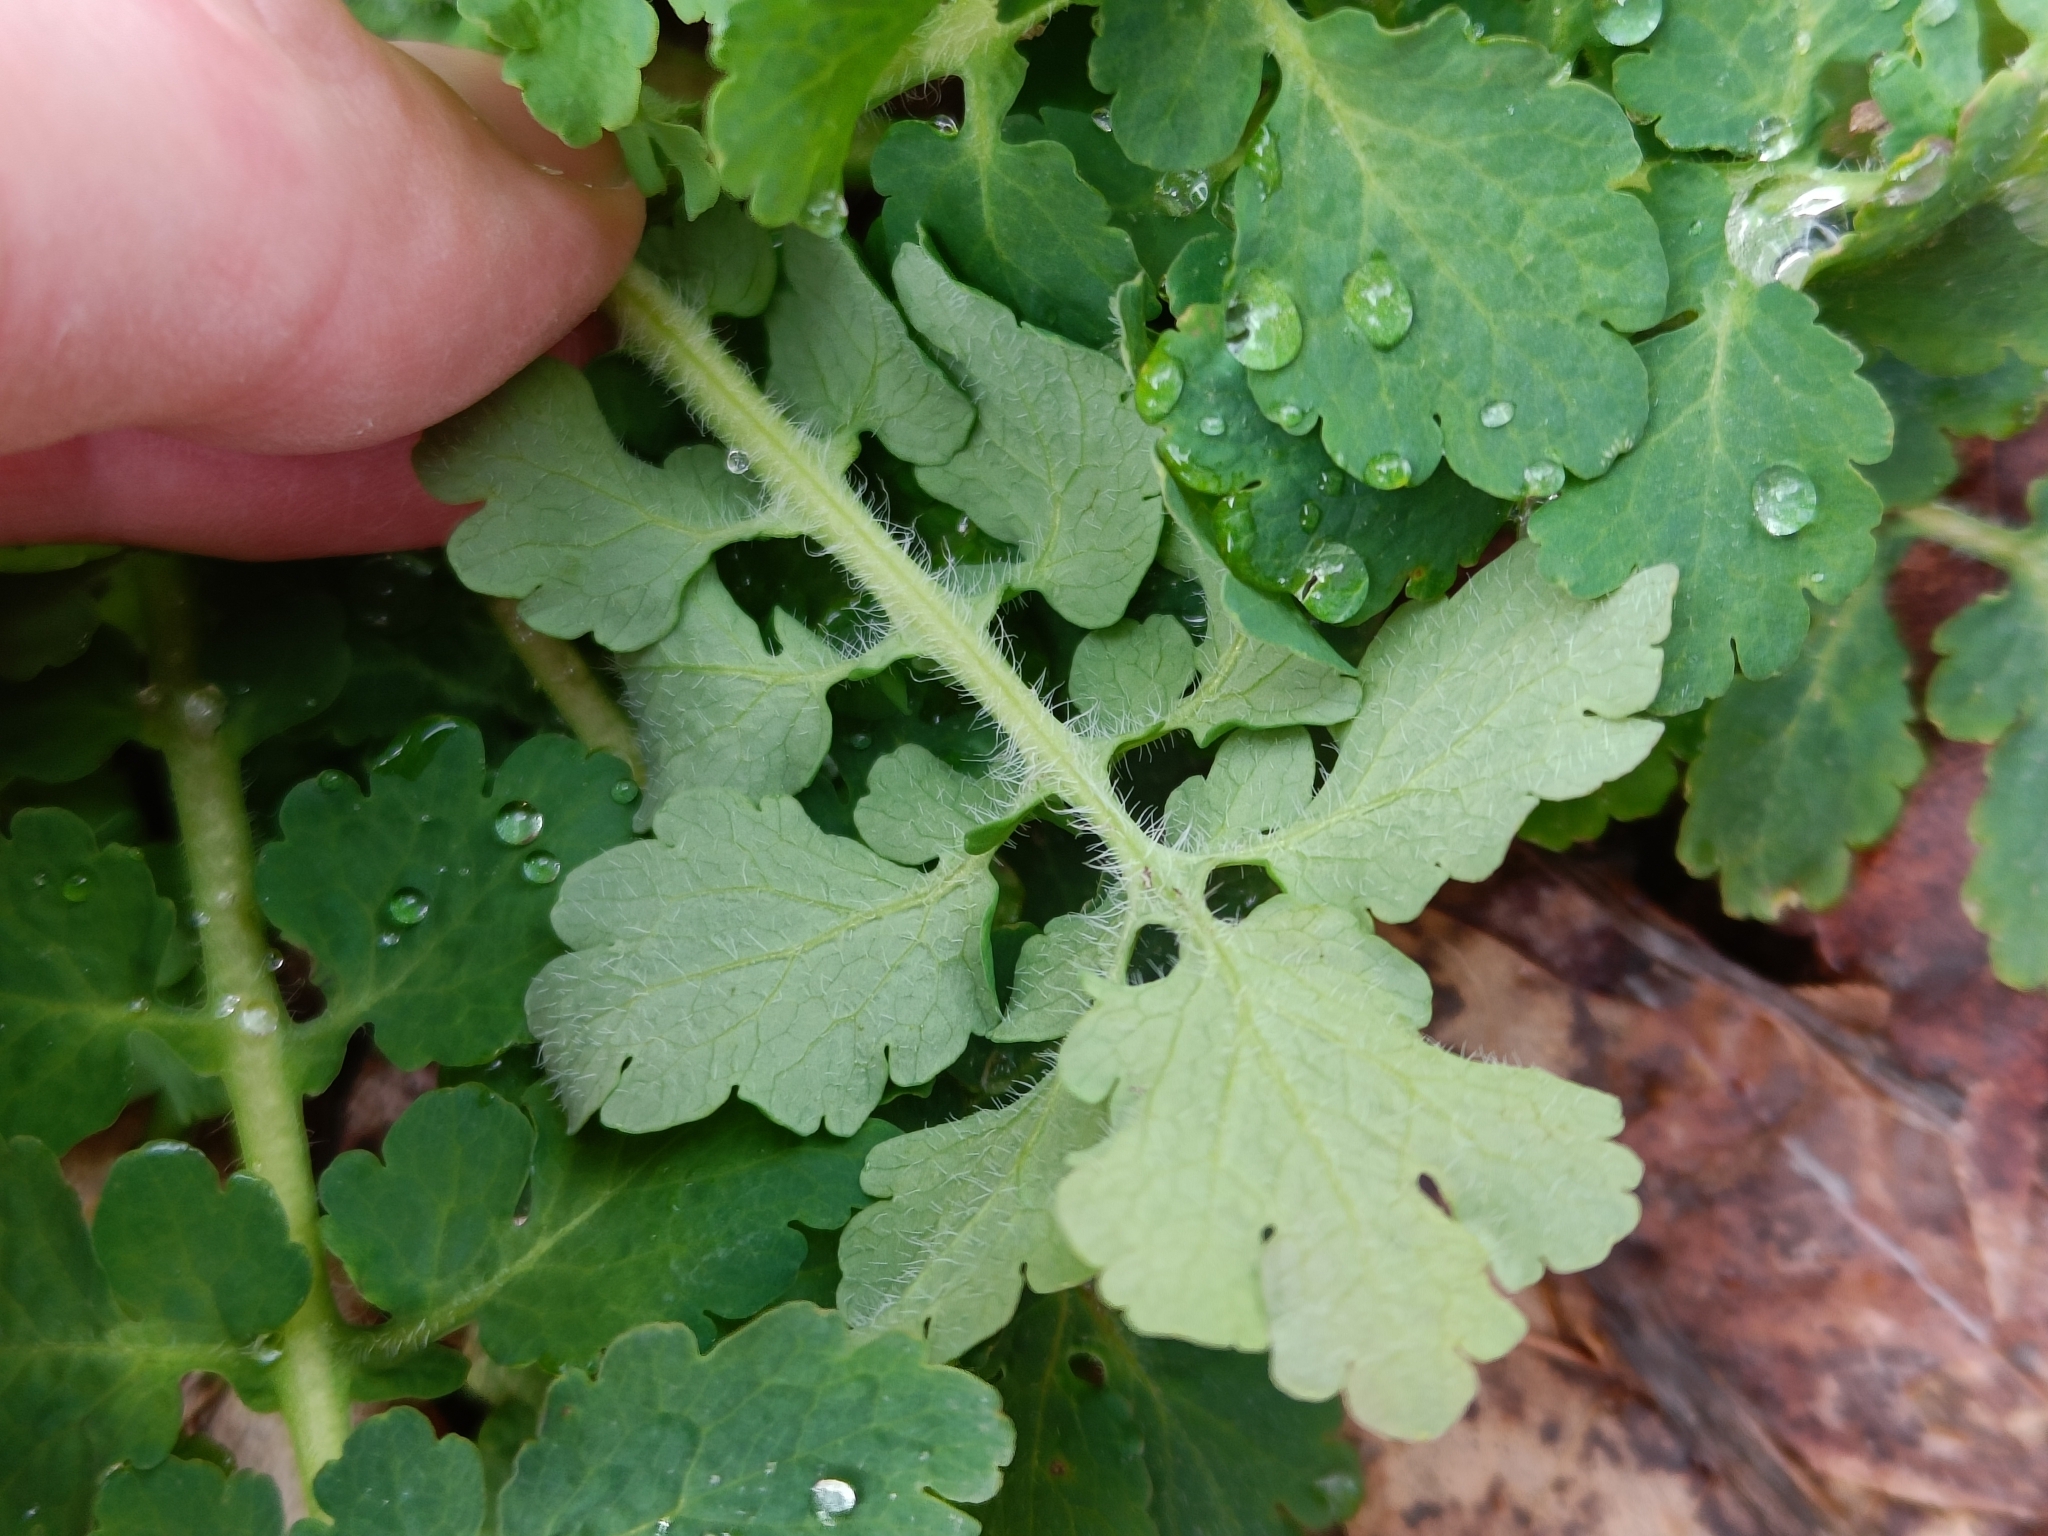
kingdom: Plantae
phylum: Tracheophyta
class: Magnoliopsida
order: Ranunculales
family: Papaveraceae
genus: Chelidonium
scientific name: Chelidonium majus
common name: Greater celandine
